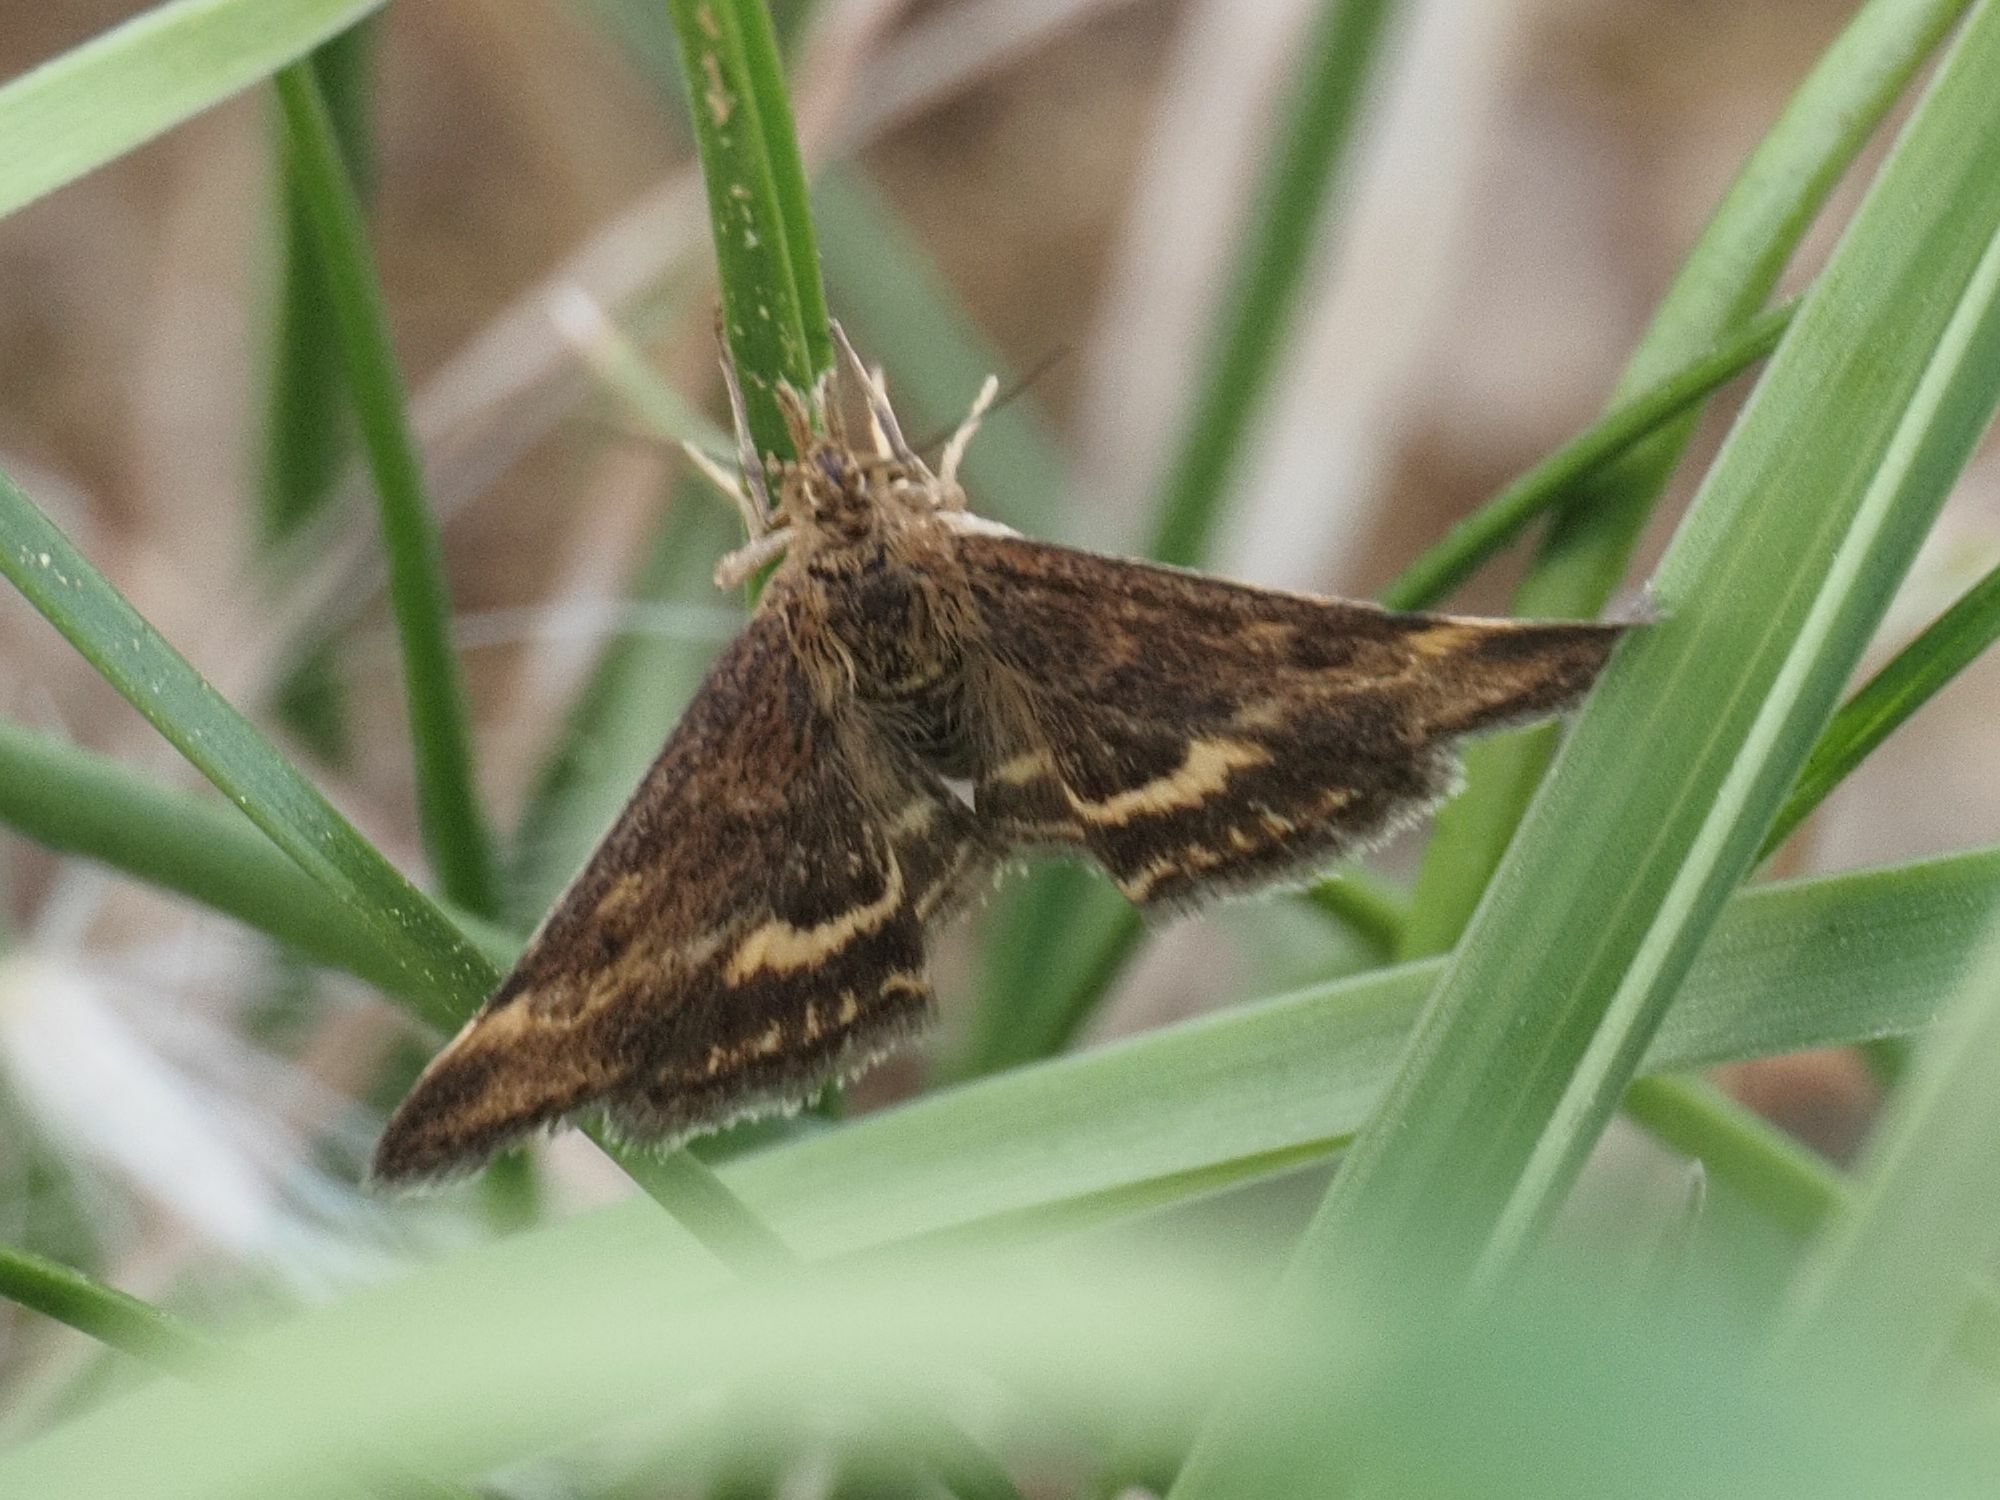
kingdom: Animalia
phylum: Arthropoda
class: Insecta
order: Lepidoptera
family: Crambidae
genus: Pyrausta
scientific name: Pyrausta despicata
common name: Straw-barred pearl
